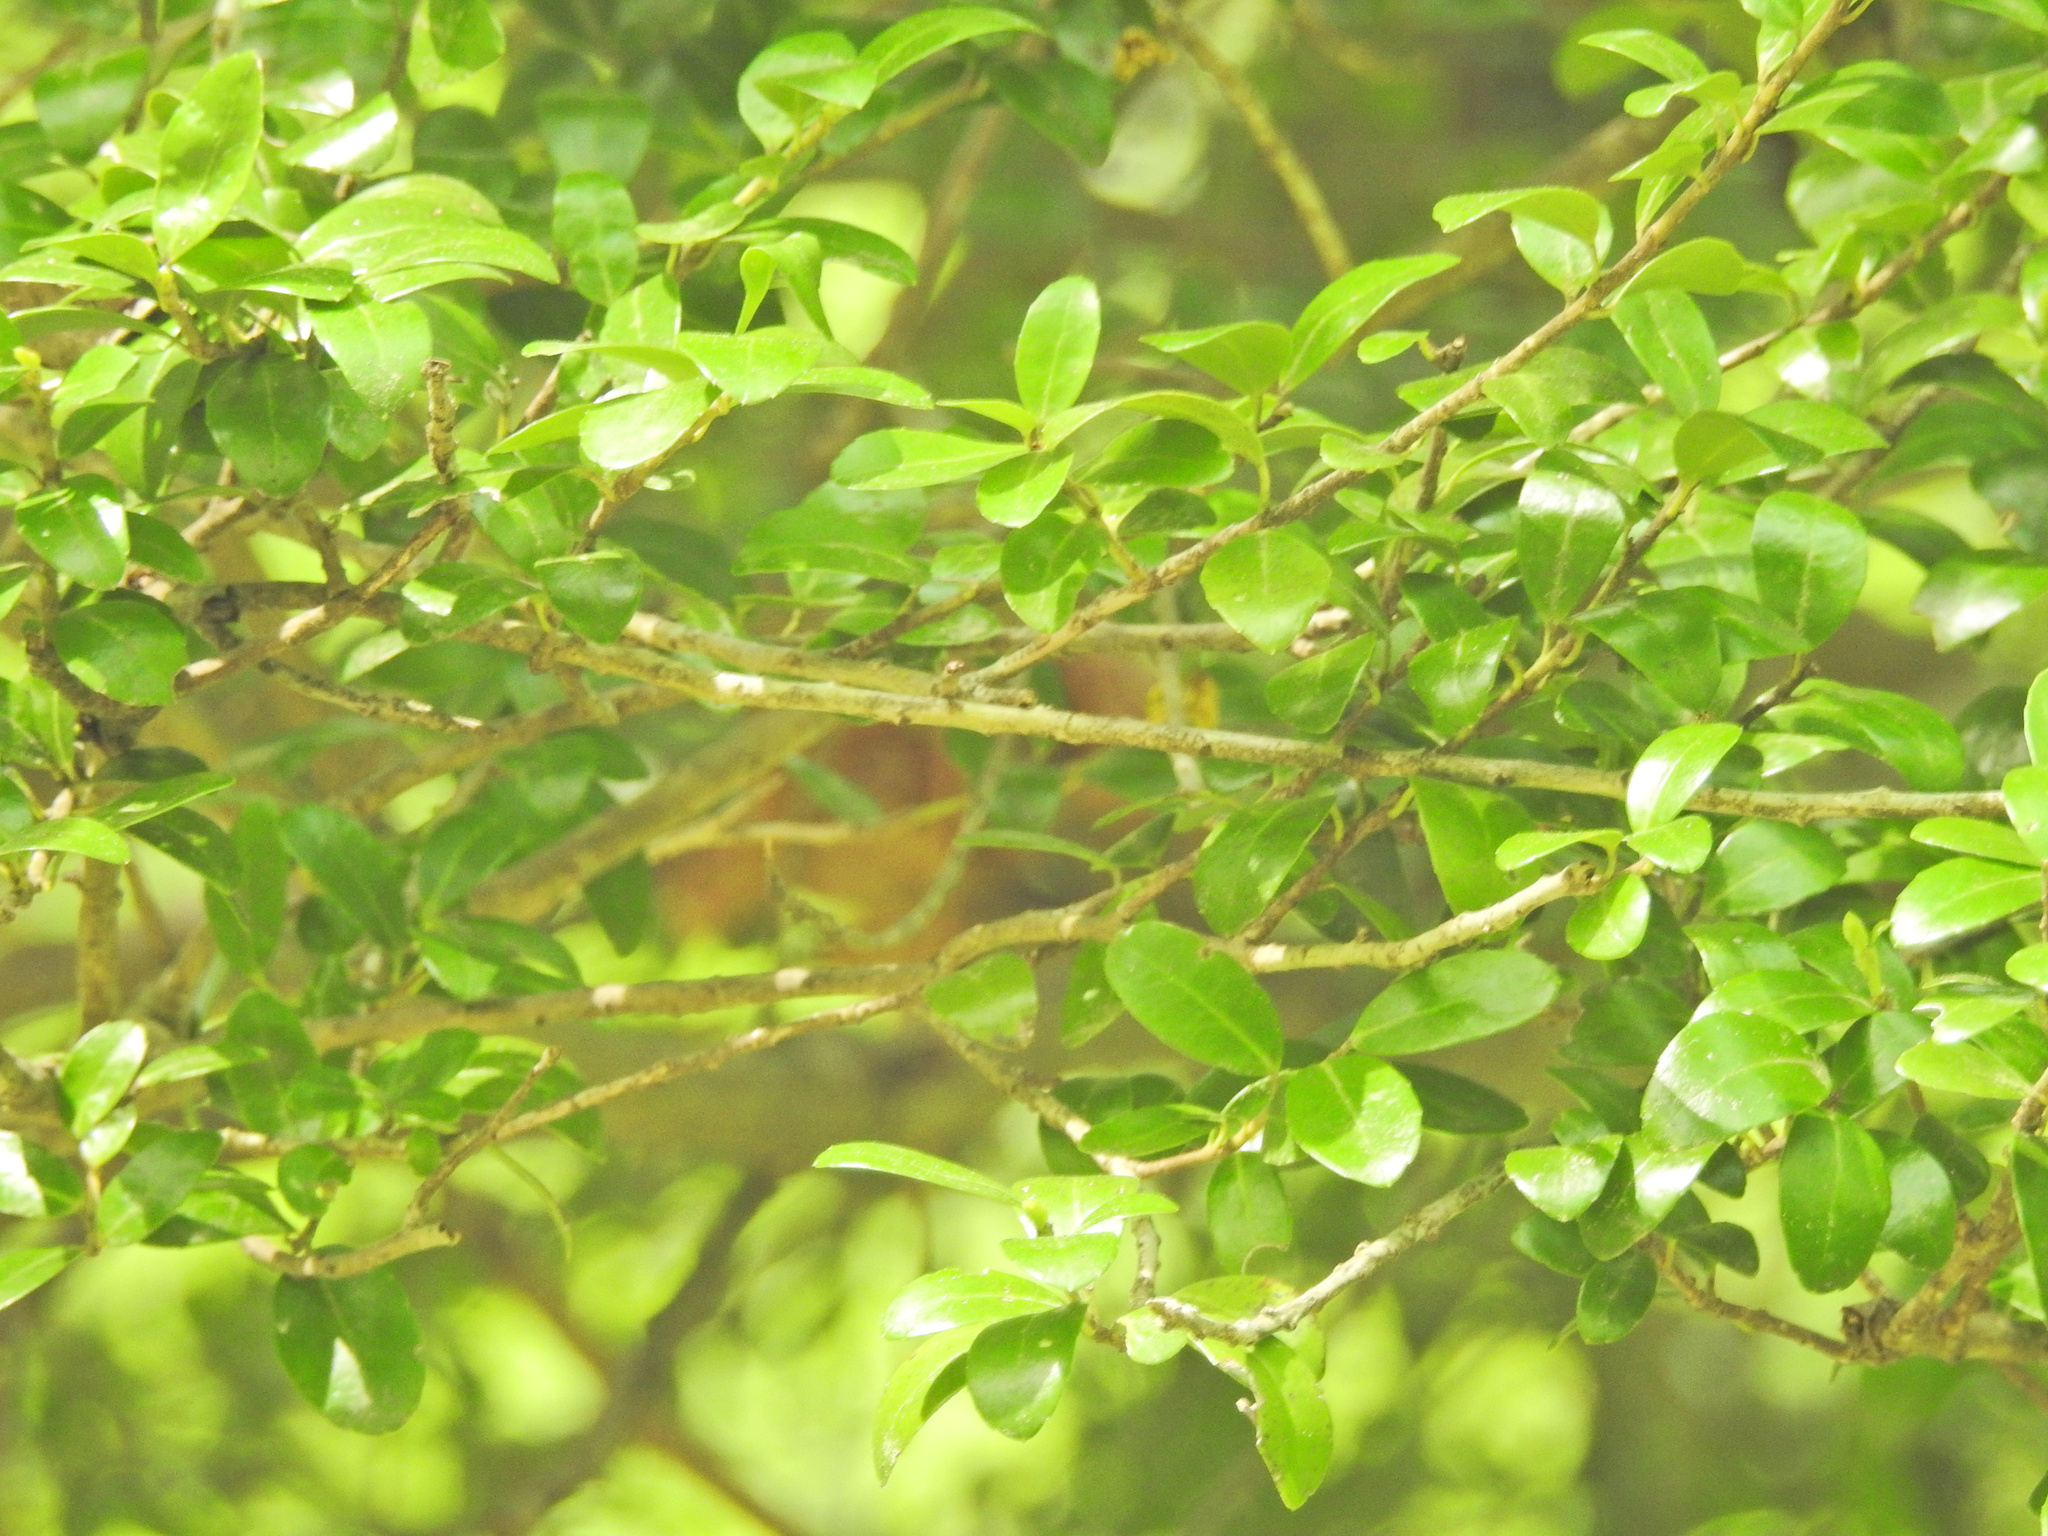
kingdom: Plantae
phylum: Tracheophyta
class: Magnoliopsida
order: Aquifoliales
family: Aquifoliaceae
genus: Ilex
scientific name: Ilex crenata
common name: Japanese holly
